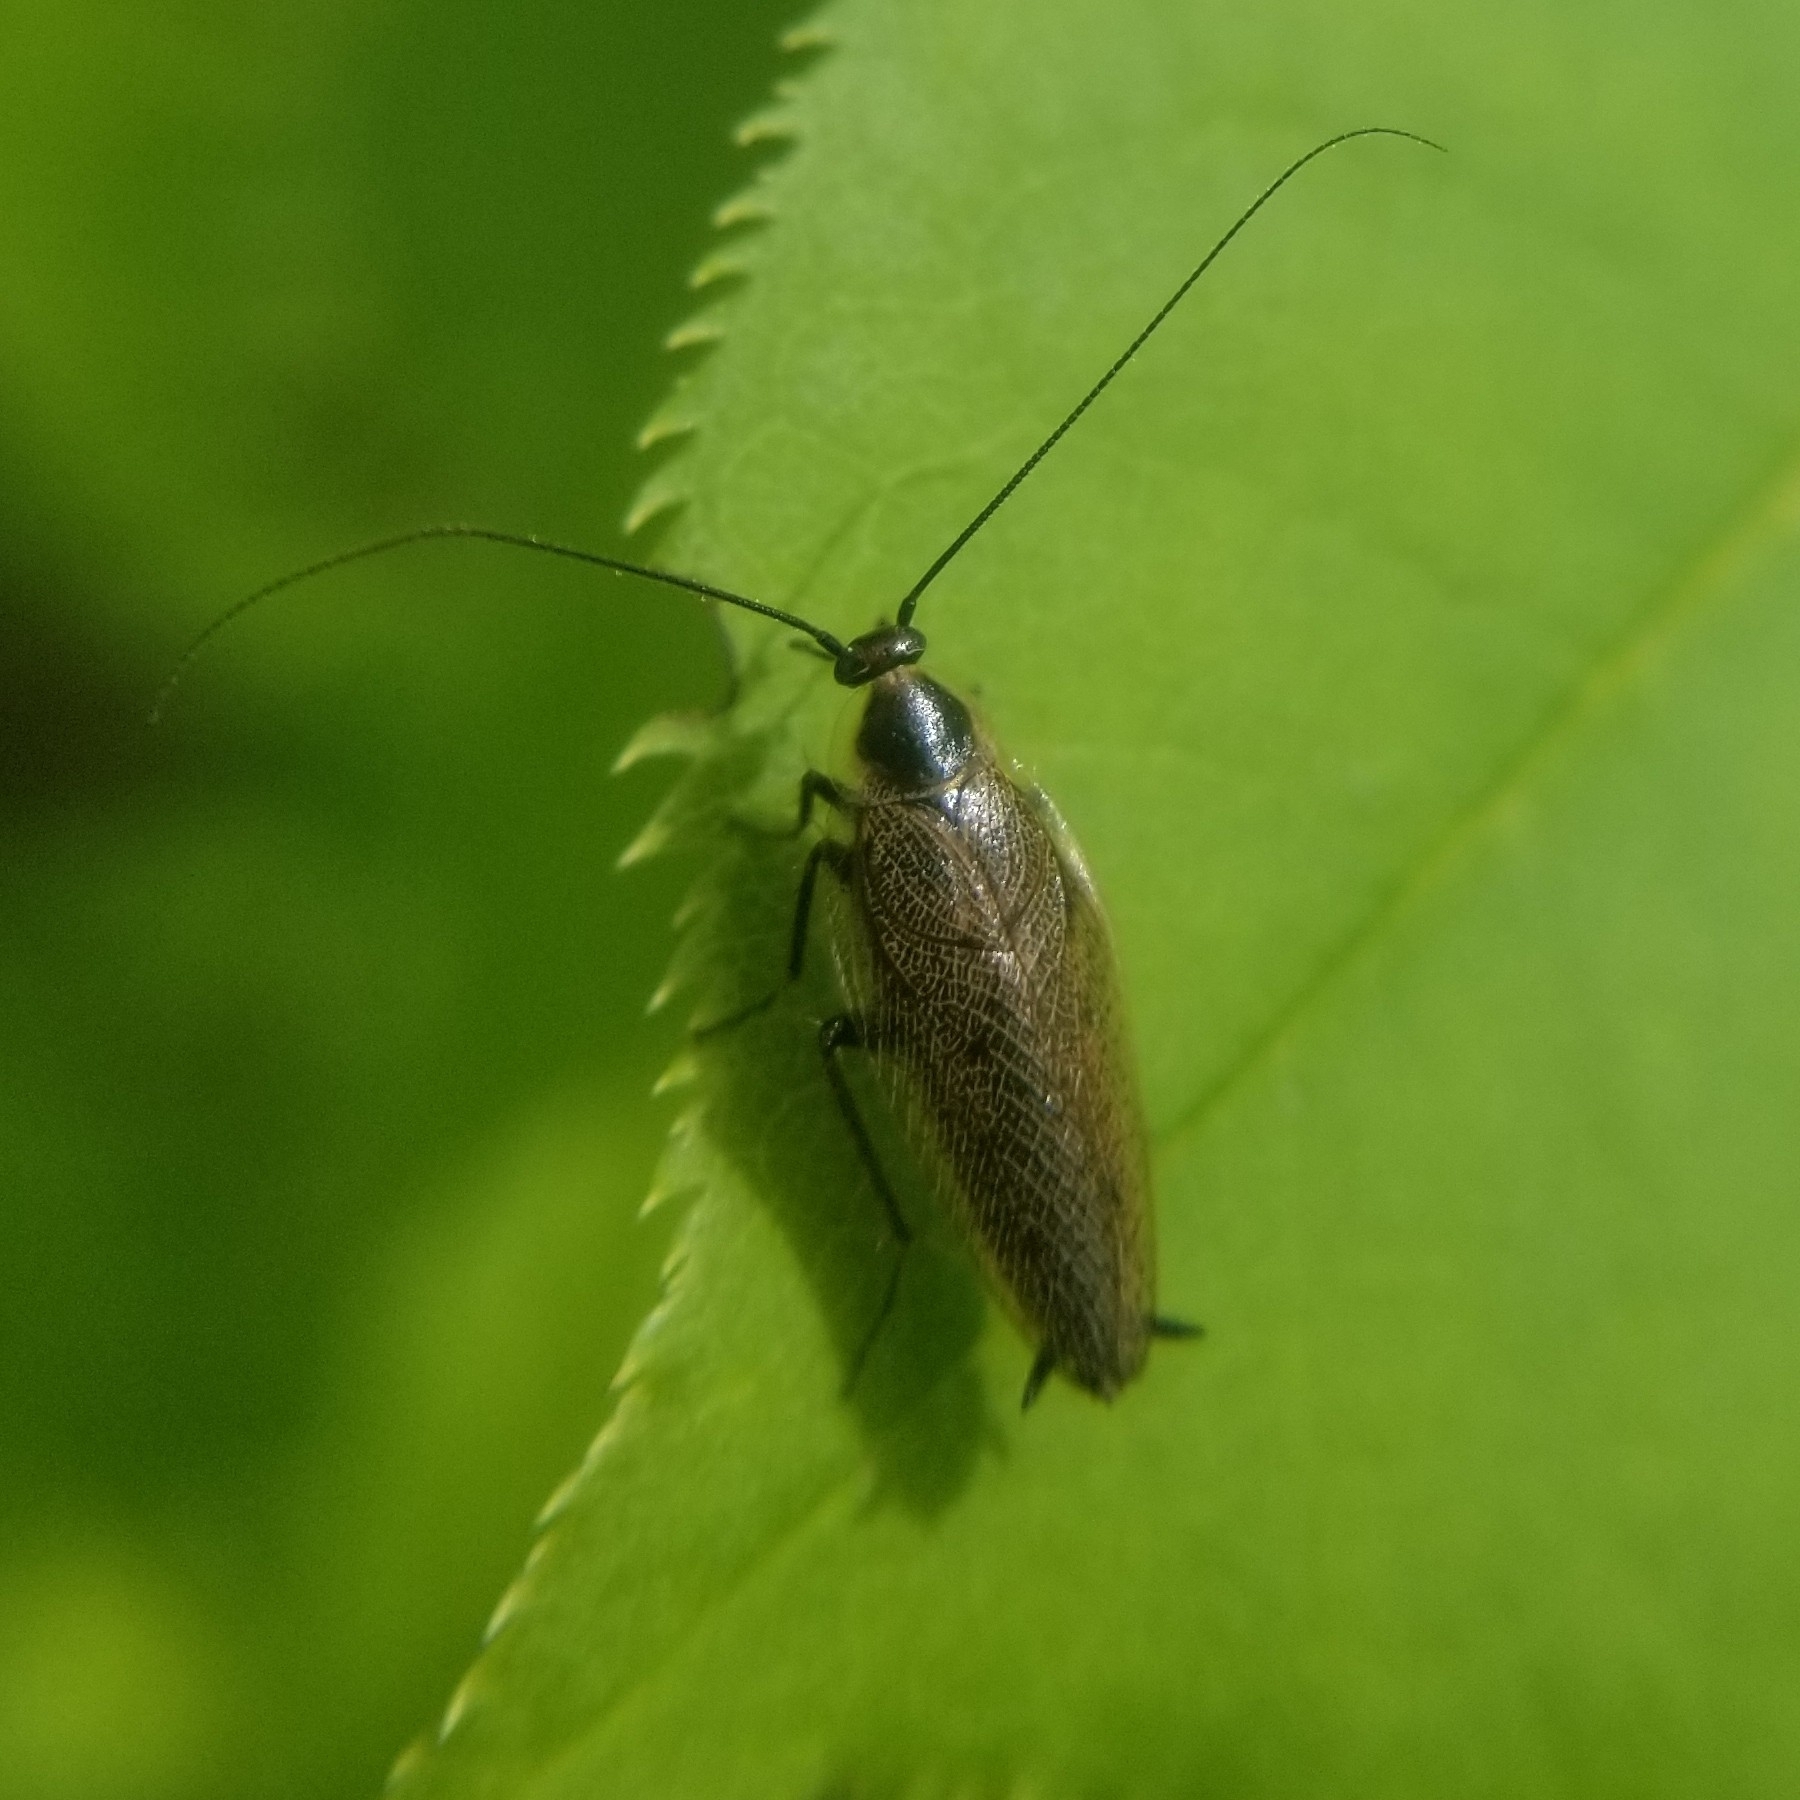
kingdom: Animalia
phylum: Arthropoda
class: Insecta
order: Blattodea
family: Ectobiidae
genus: Ectobius
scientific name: Ectobius lapponicus
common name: Dusky cockroach
